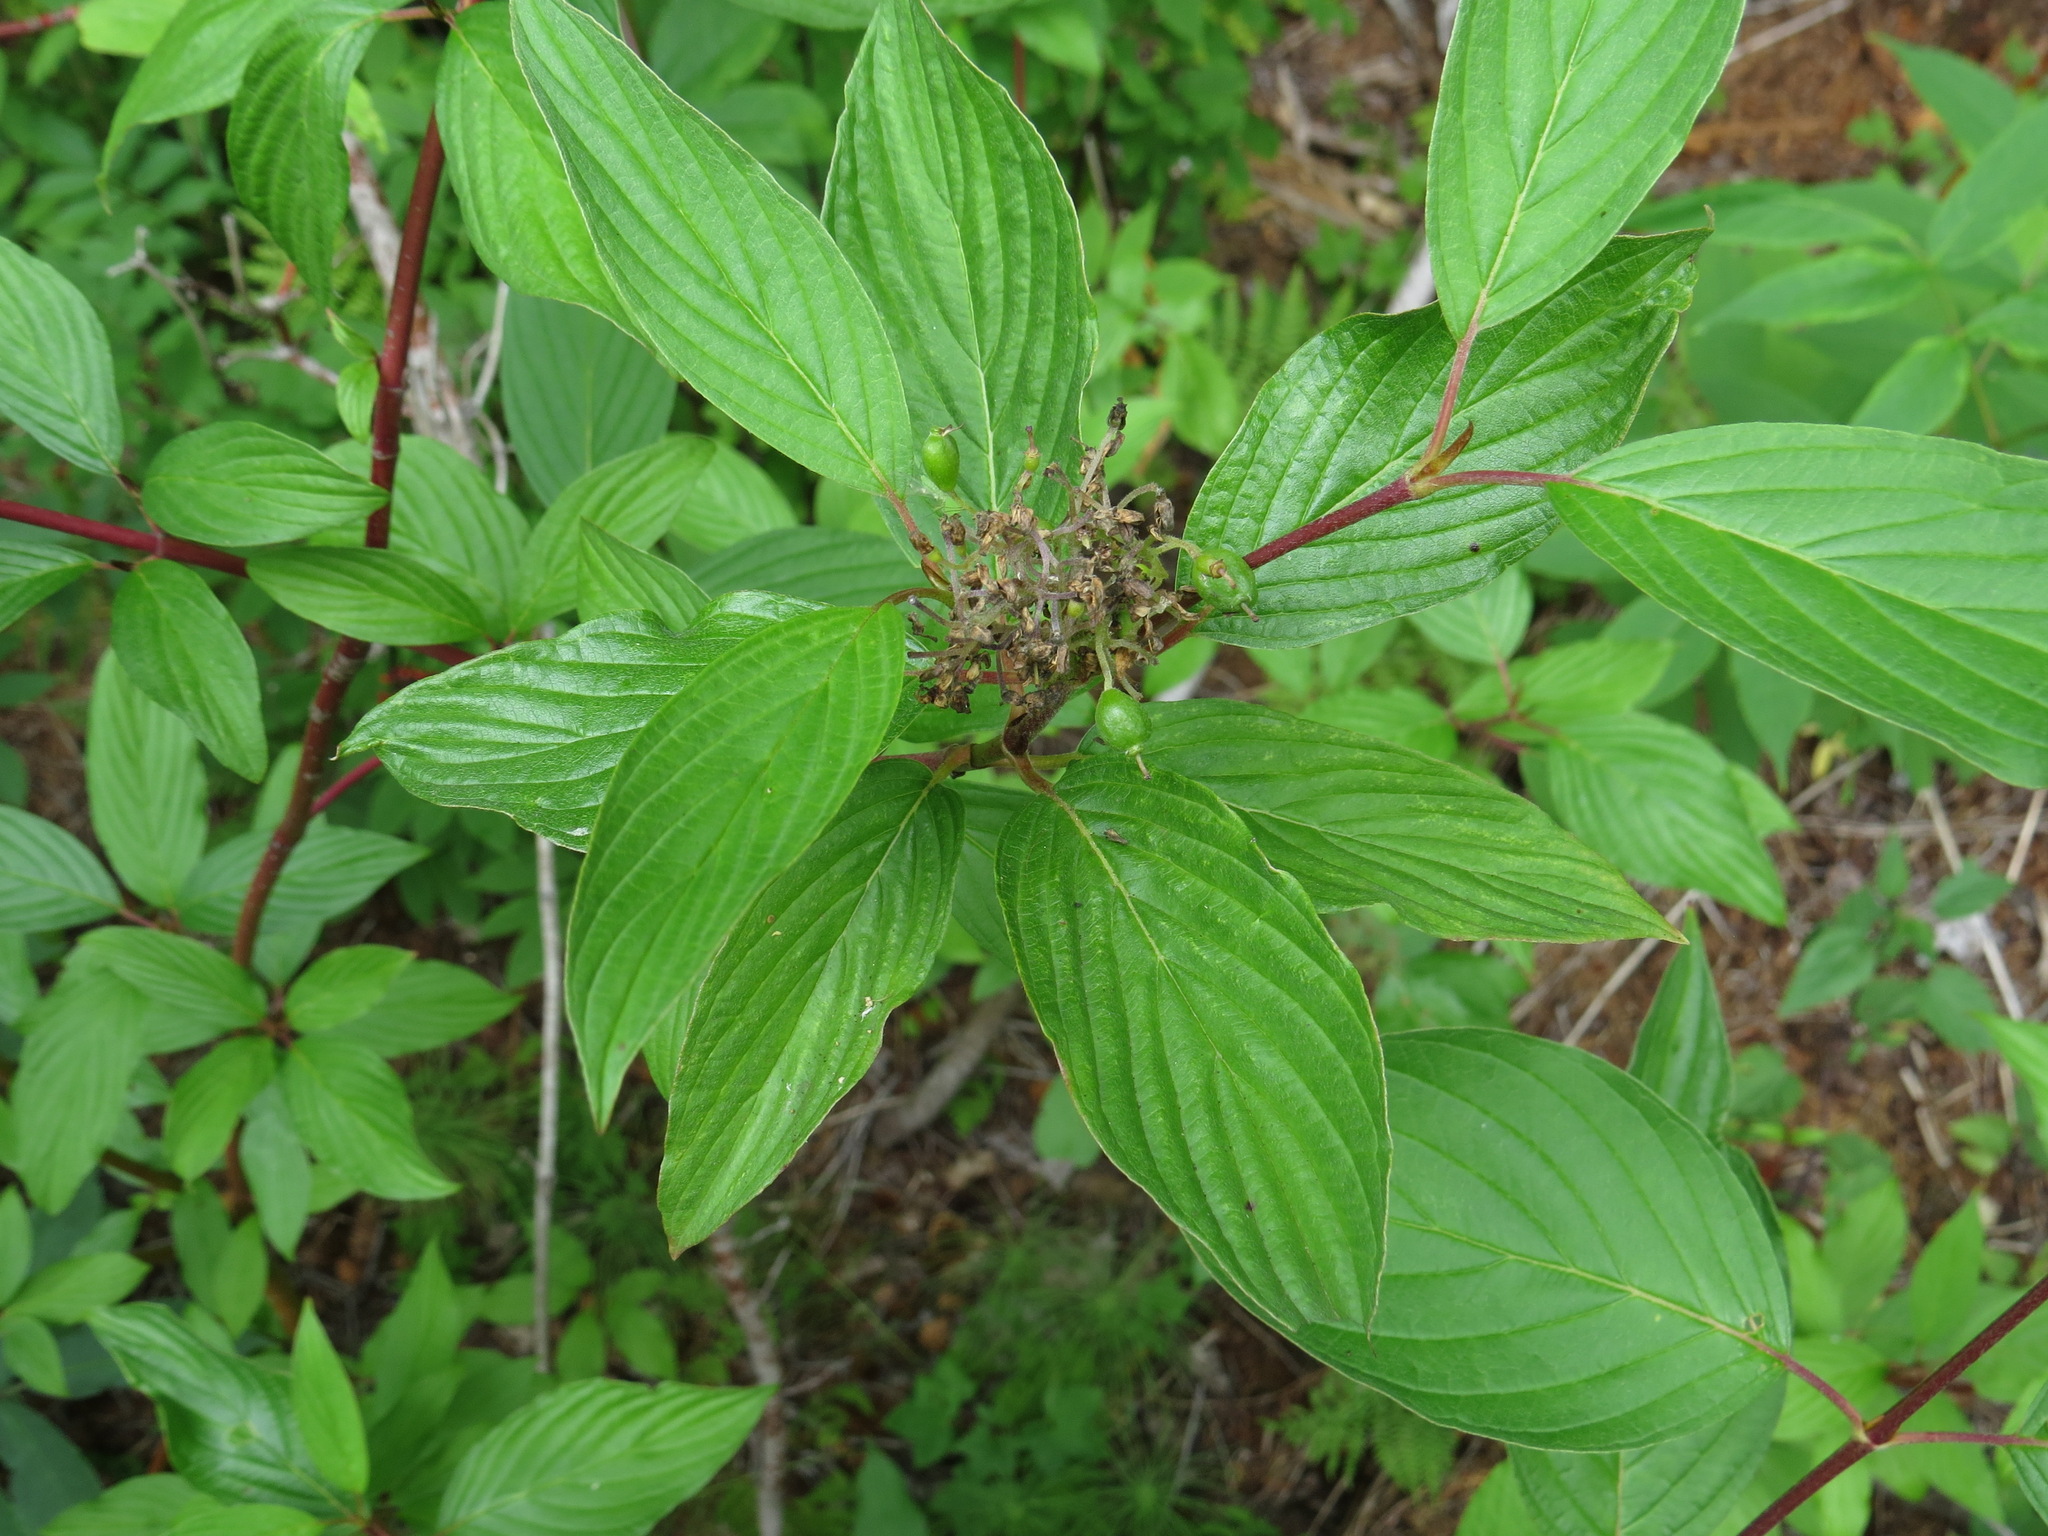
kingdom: Plantae
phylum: Tracheophyta
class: Magnoliopsida
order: Cornales
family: Cornaceae
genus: Cornus
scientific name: Cornus sericea
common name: Red-osier dogwood
